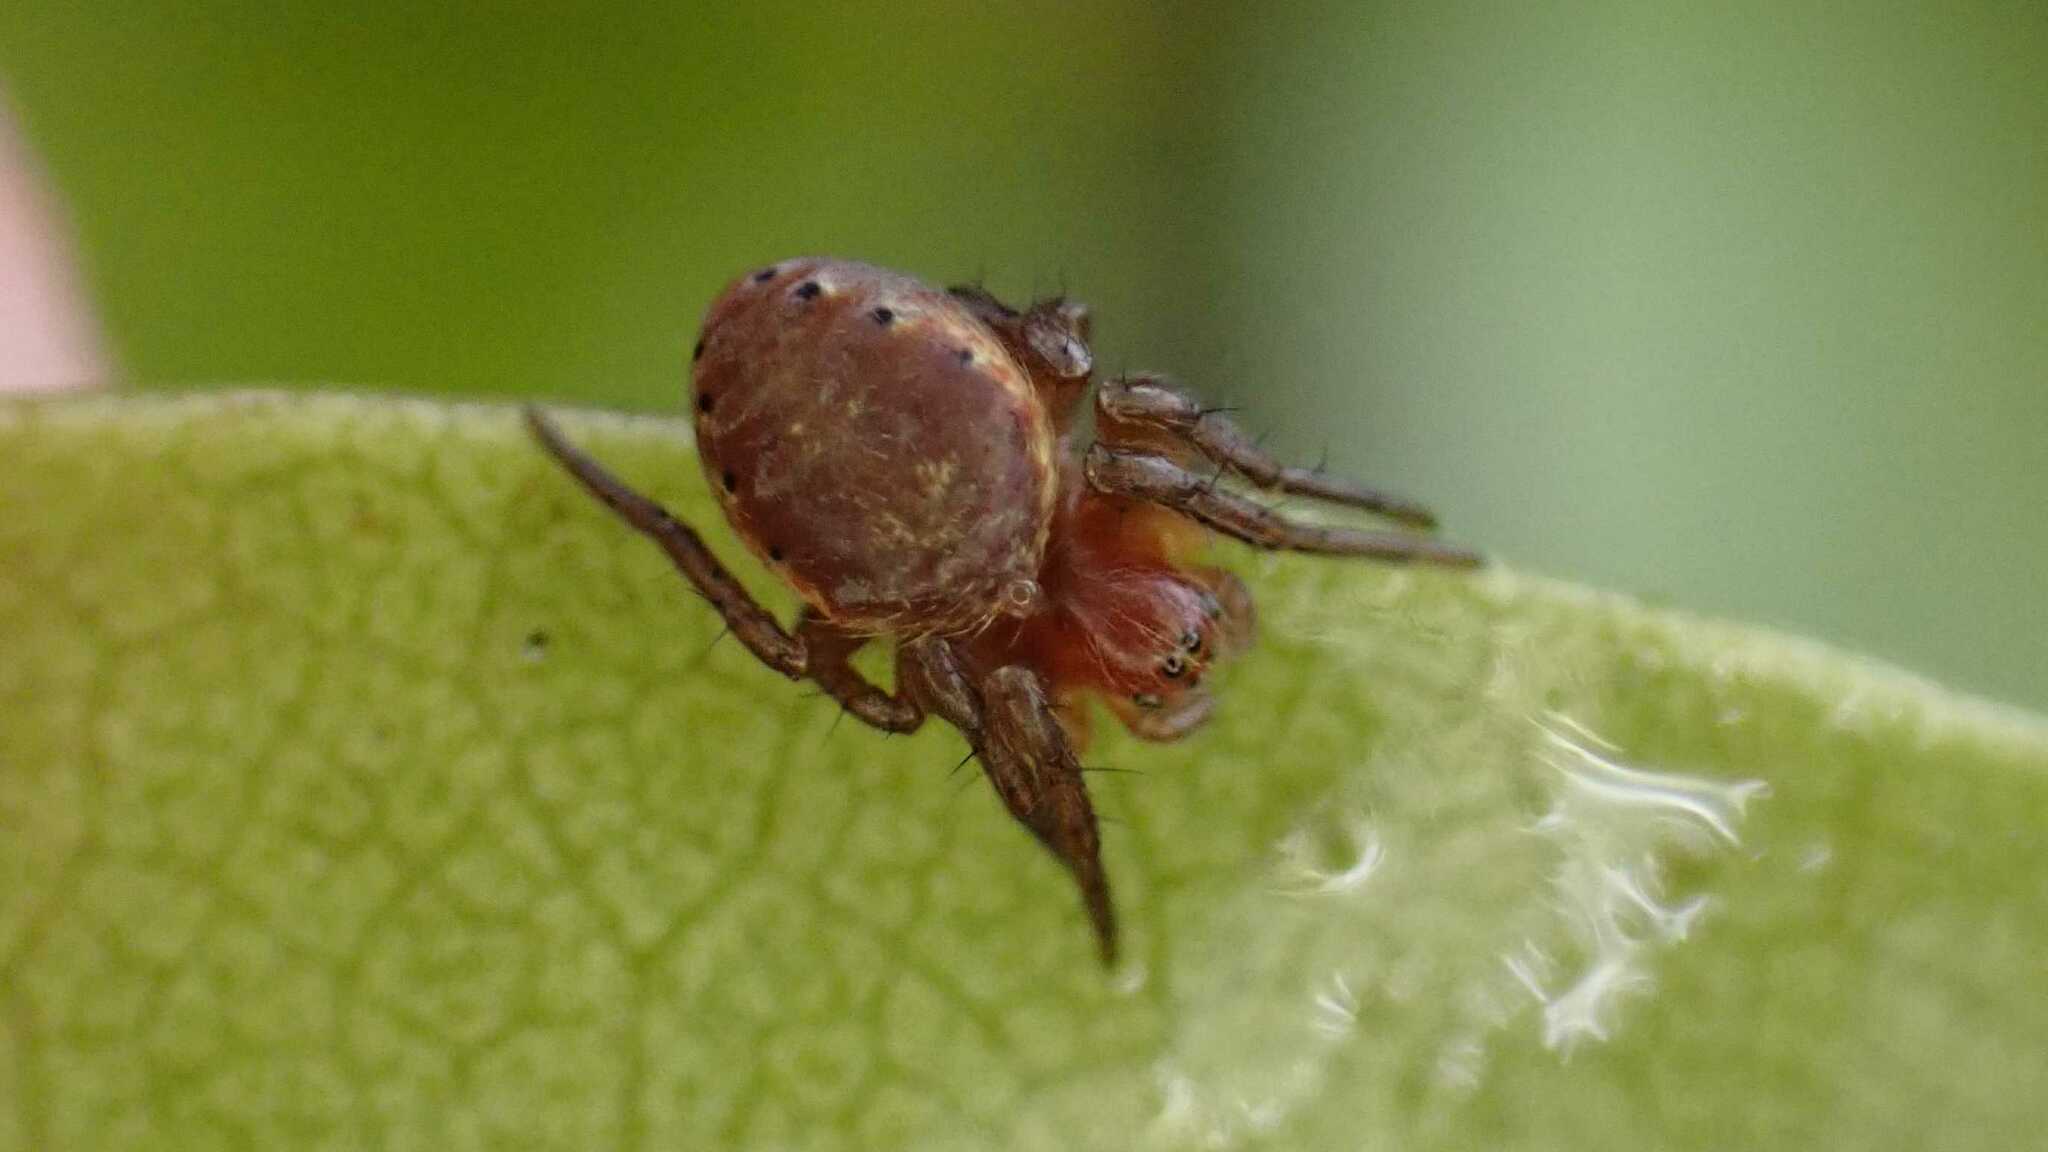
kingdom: Animalia
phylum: Arthropoda
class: Arachnida
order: Araneae
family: Araneidae
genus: Araniella
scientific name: Araniella
